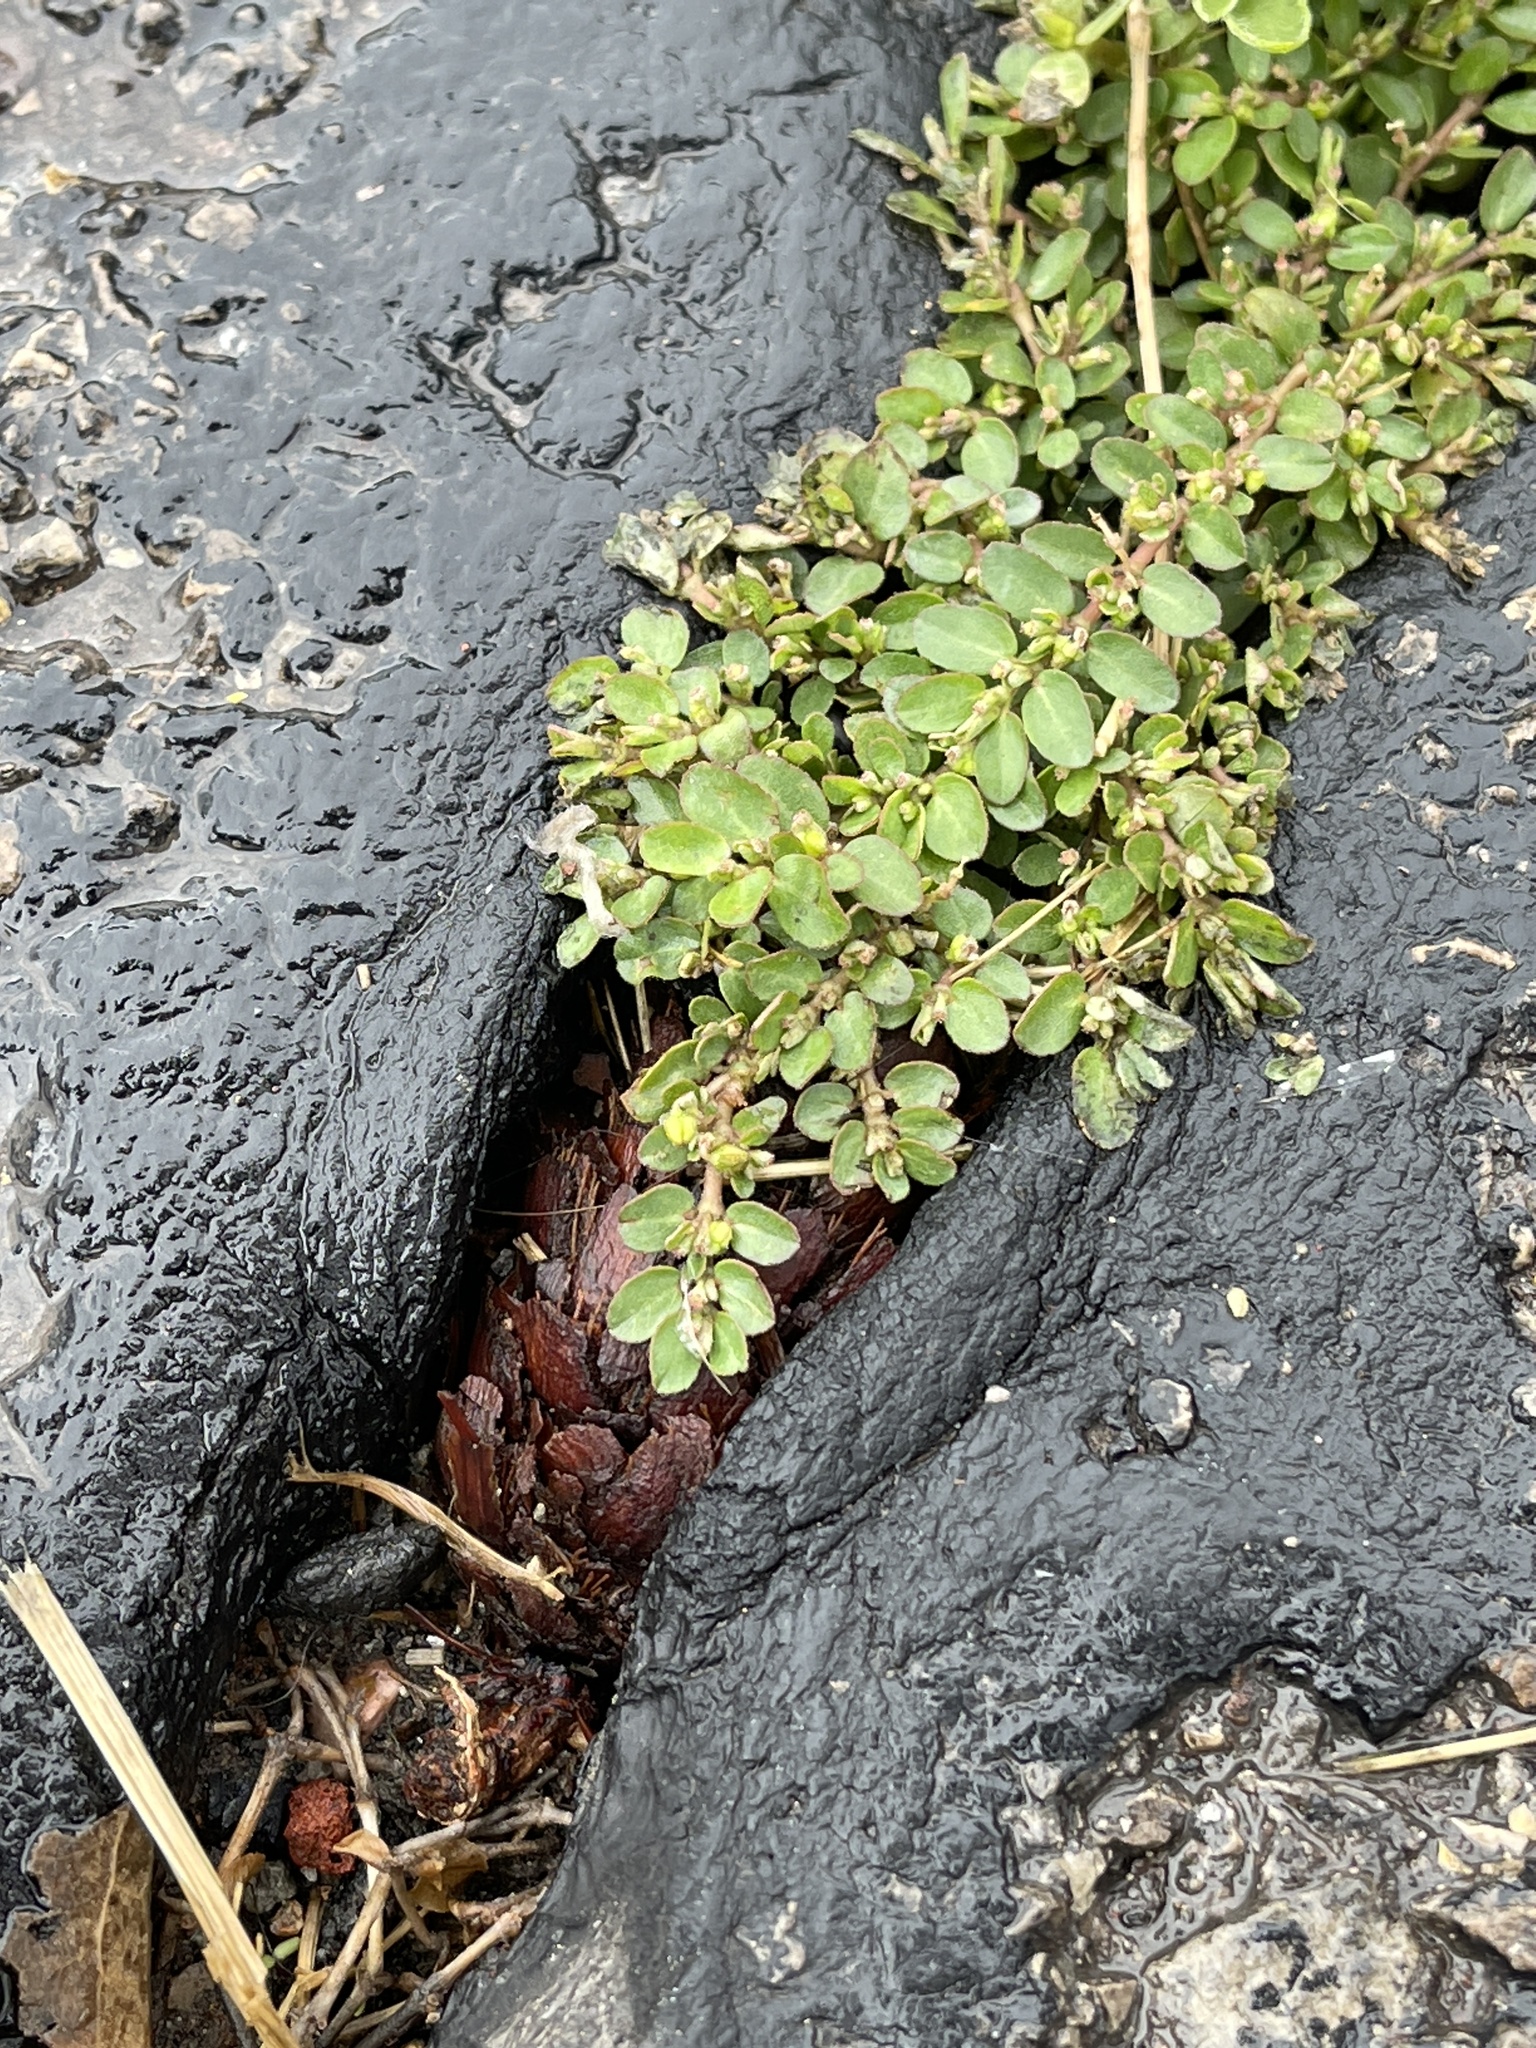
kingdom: Plantae
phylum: Tracheophyta
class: Magnoliopsida
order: Malpighiales
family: Euphorbiaceae
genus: Euphorbia
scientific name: Euphorbia prostrata
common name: Prostrate sandmat
